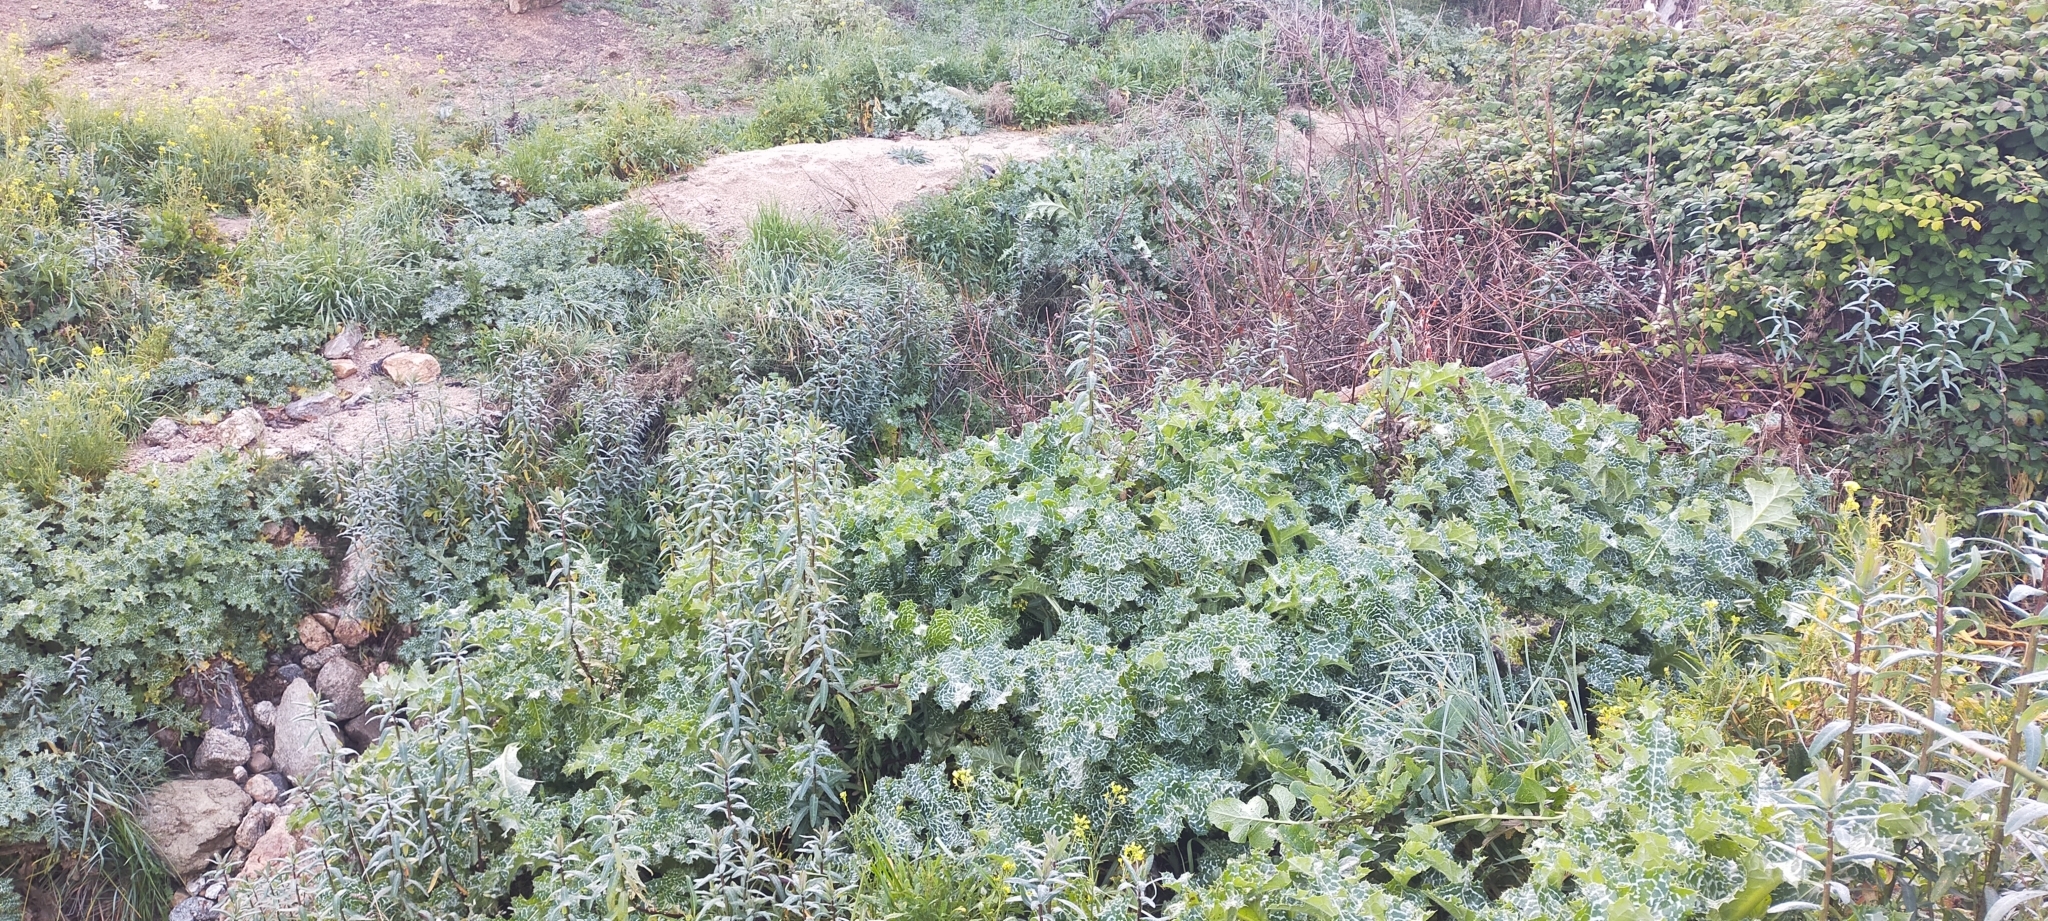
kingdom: Plantae
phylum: Tracheophyta
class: Magnoliopsida
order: Malpighiales
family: Euphorbiaceae
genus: Euphorbia
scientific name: Euphorbia lagascae
